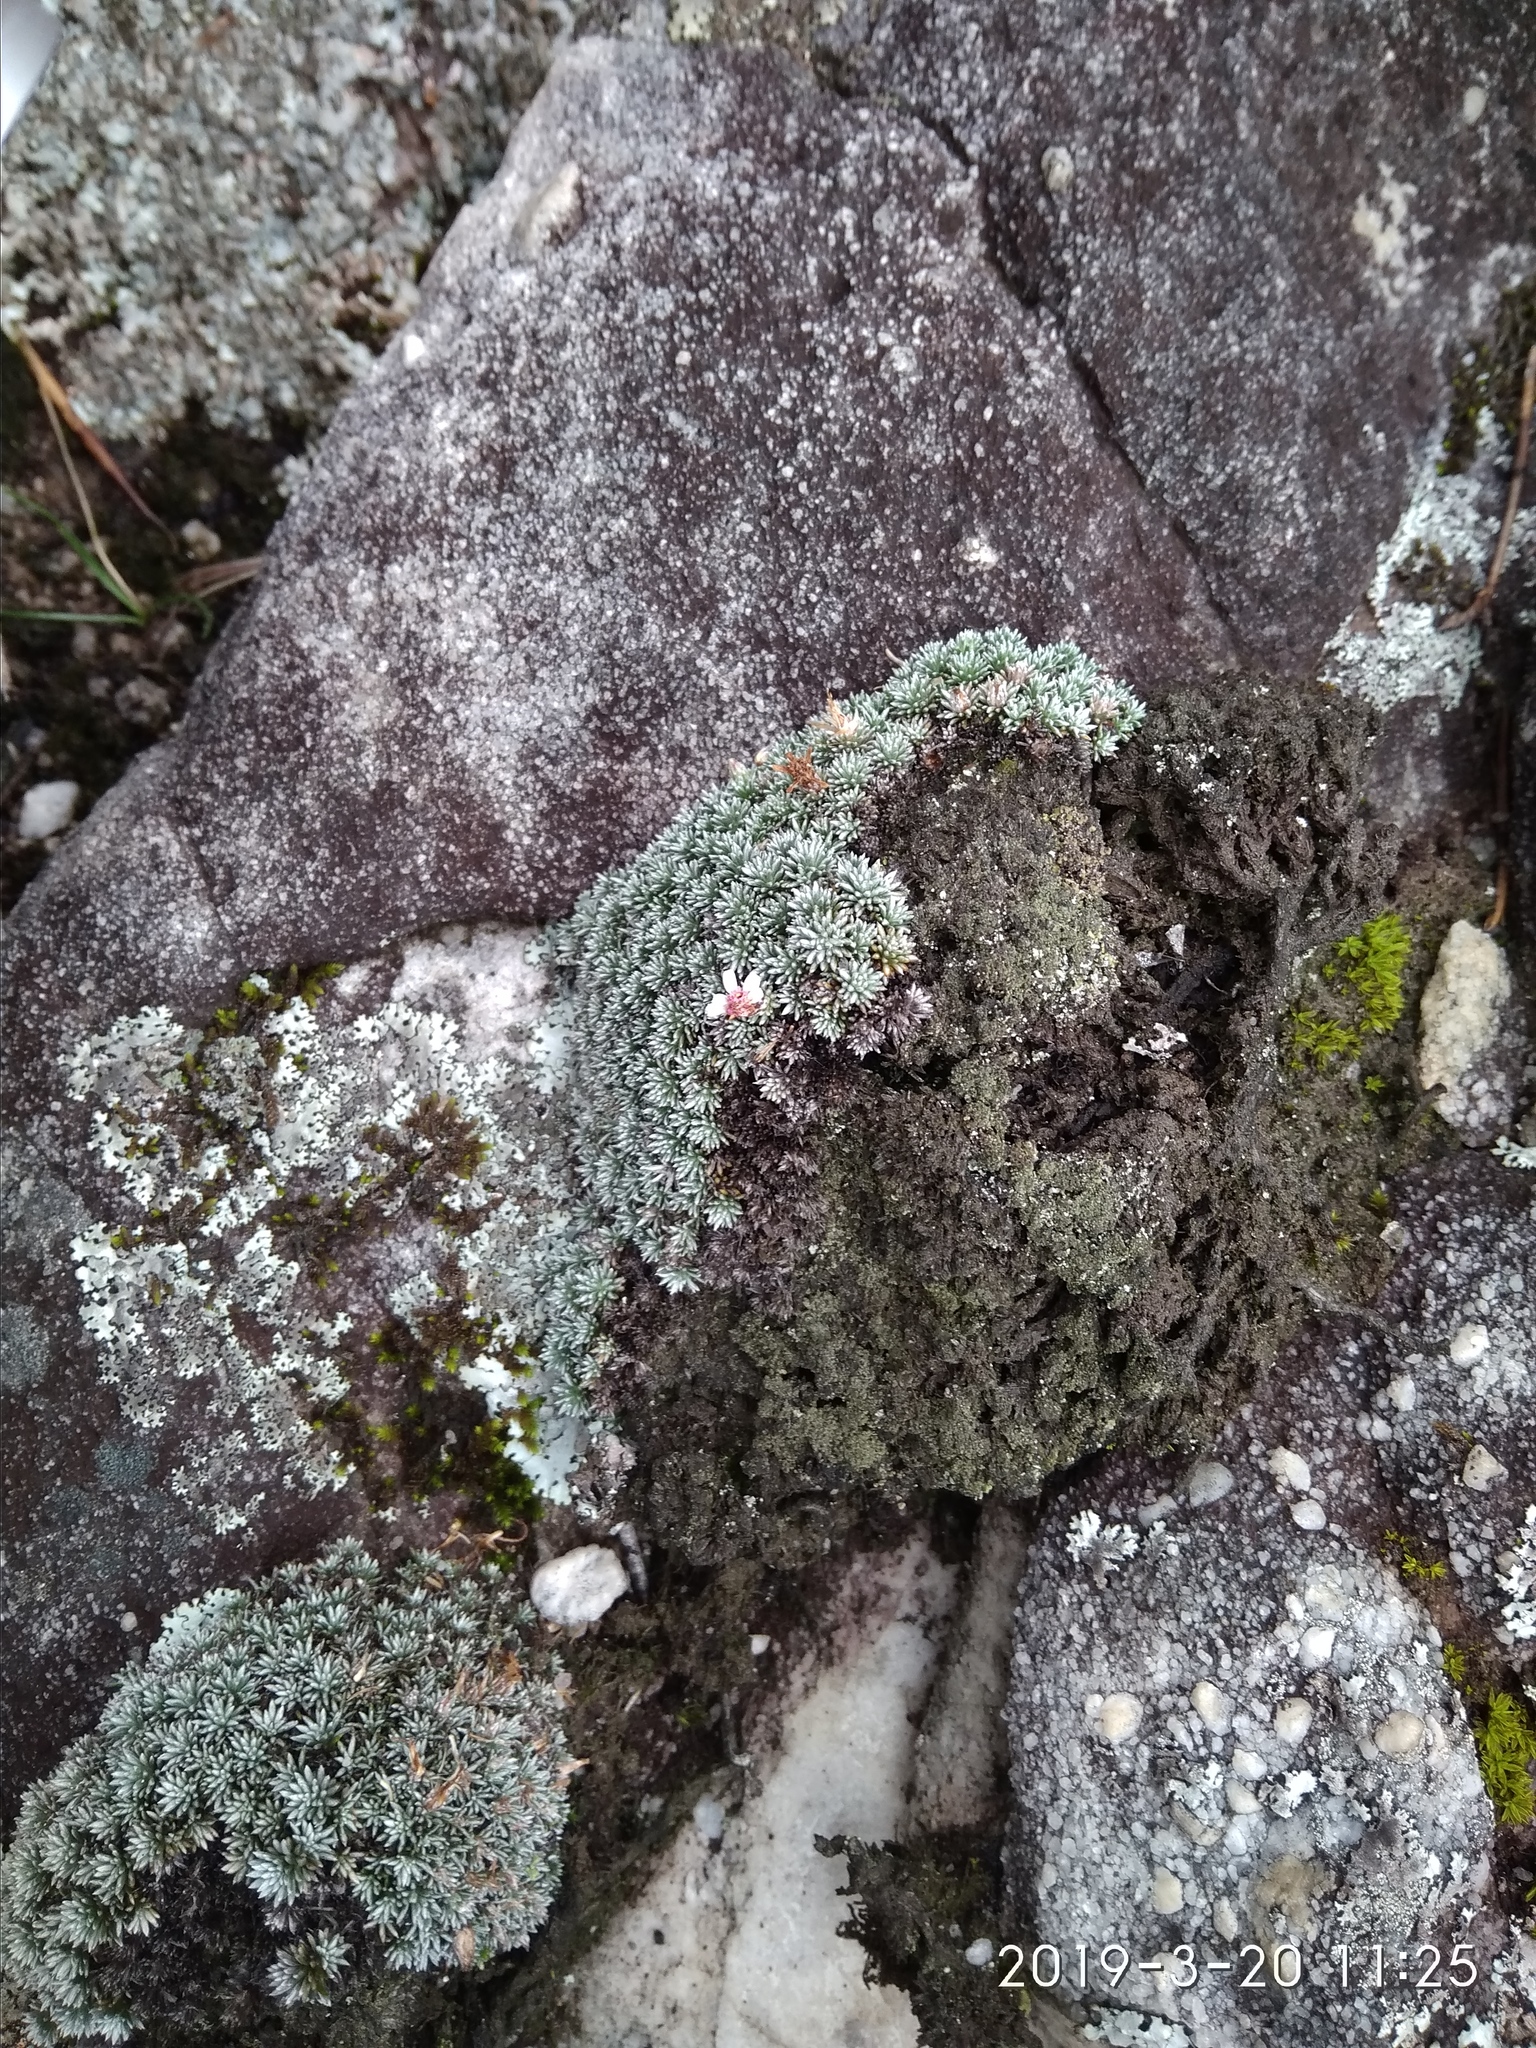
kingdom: Plantae
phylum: Tracheophyta
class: Magnoliopsida
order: Asterales
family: Asteraceae
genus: Muscosomorphe
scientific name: Muscosomorphe aretioides
